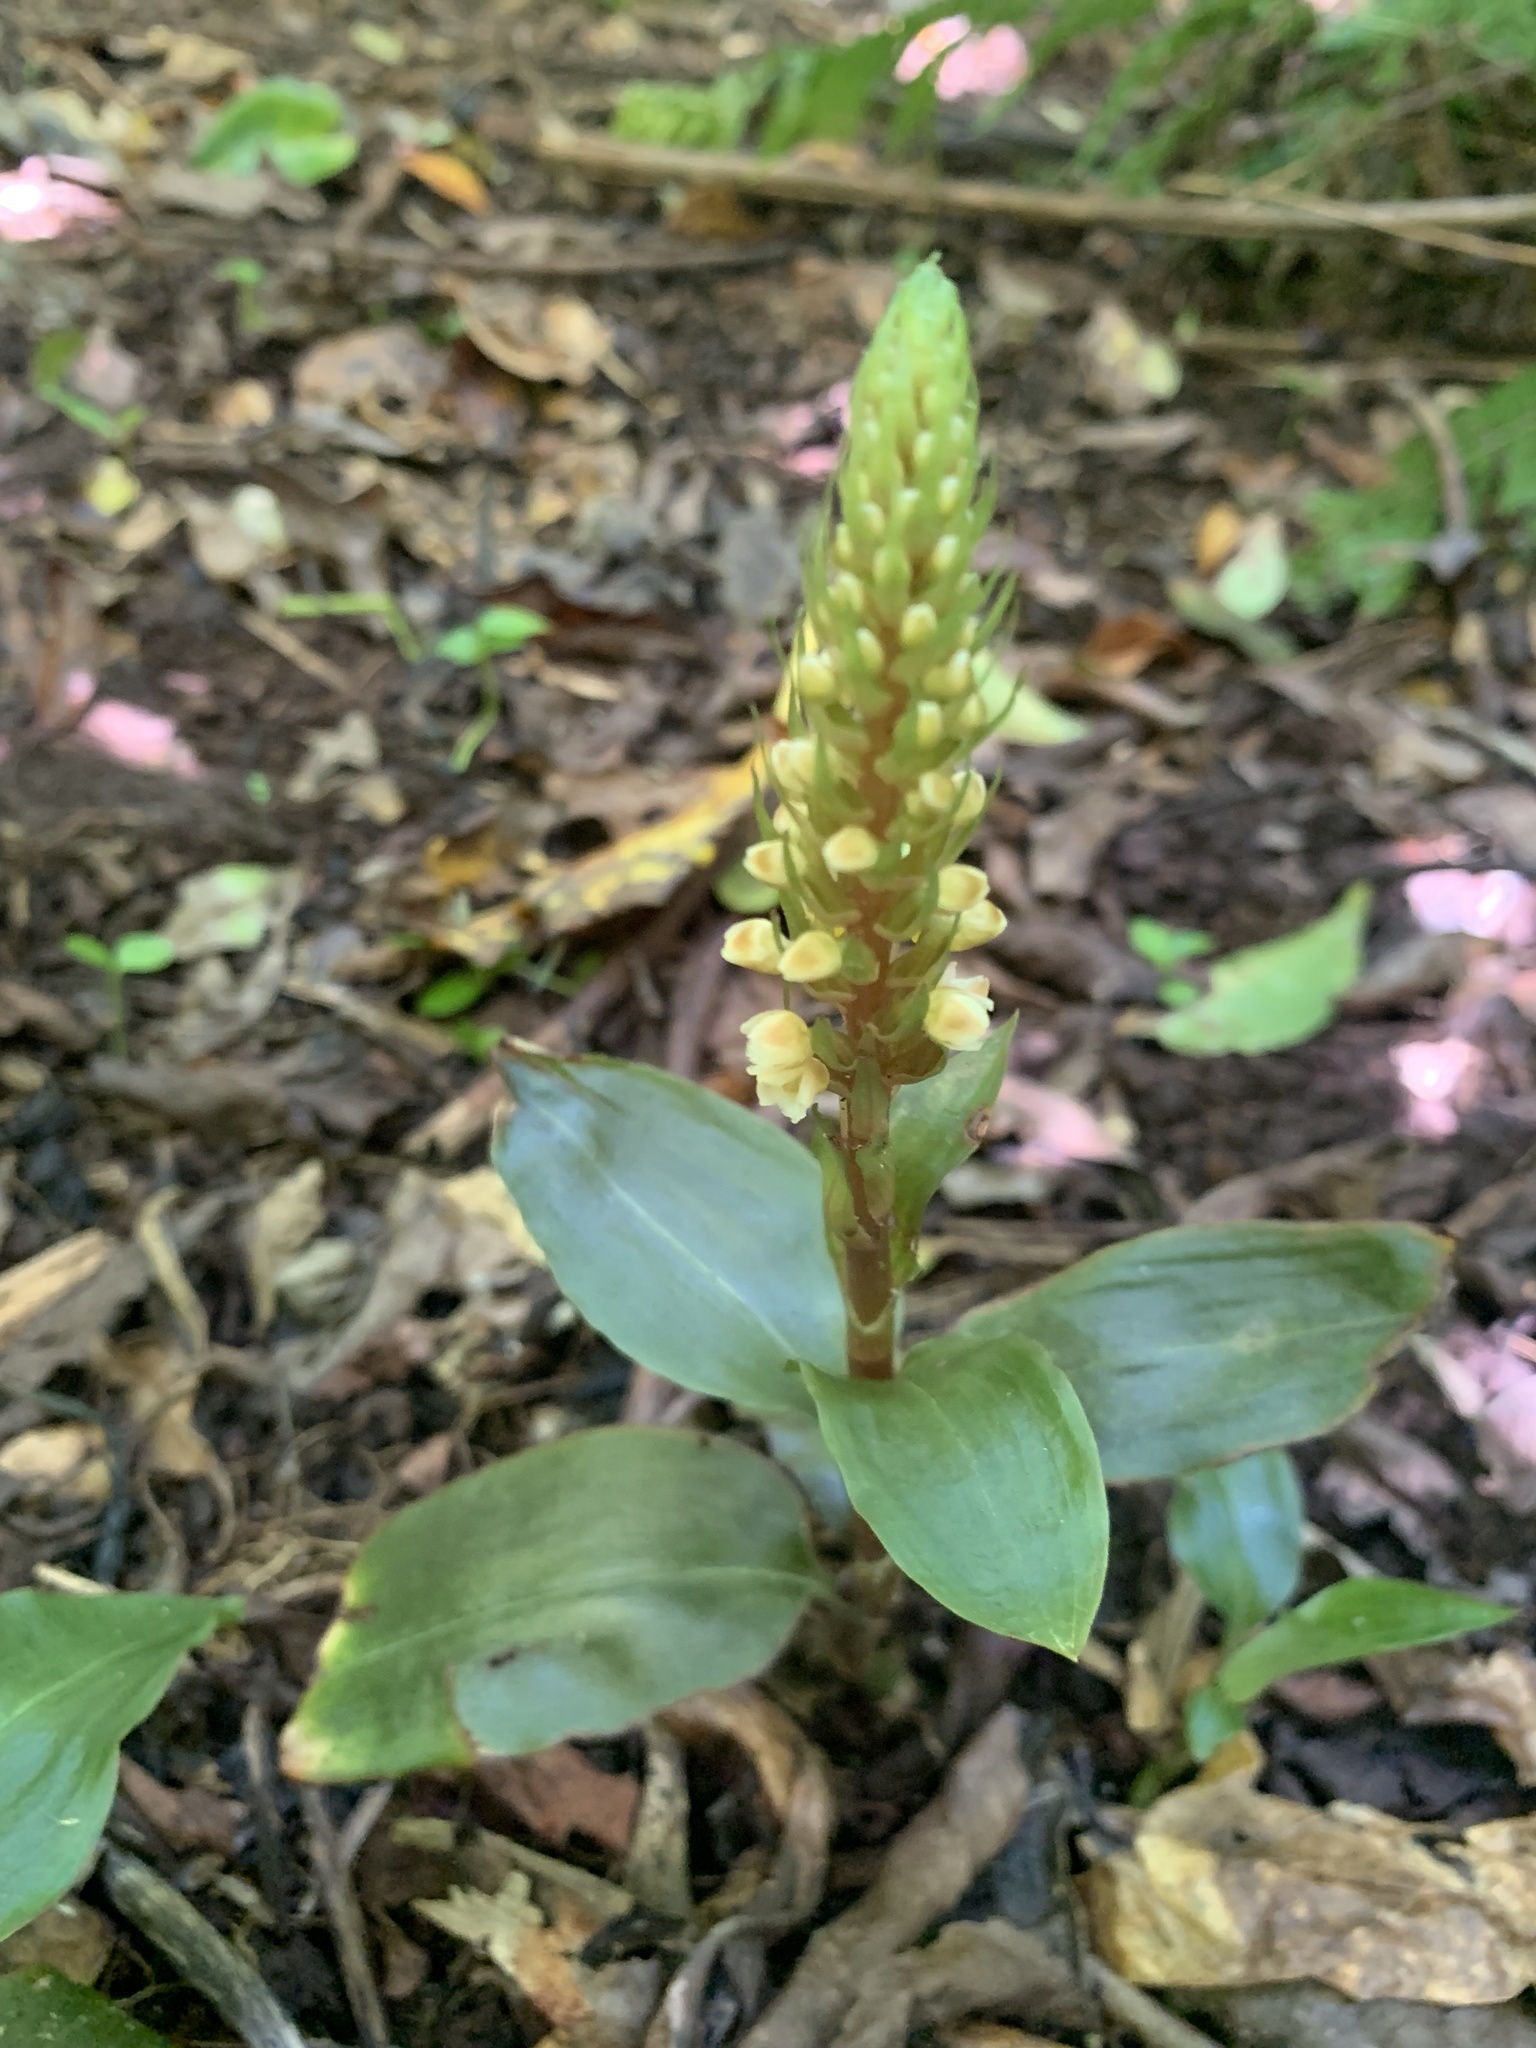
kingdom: Plantae
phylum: Tracheophyta
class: Liliopsida
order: Asparagales
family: Orchidaceae
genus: Goodyera
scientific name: Goodyera boninensis
